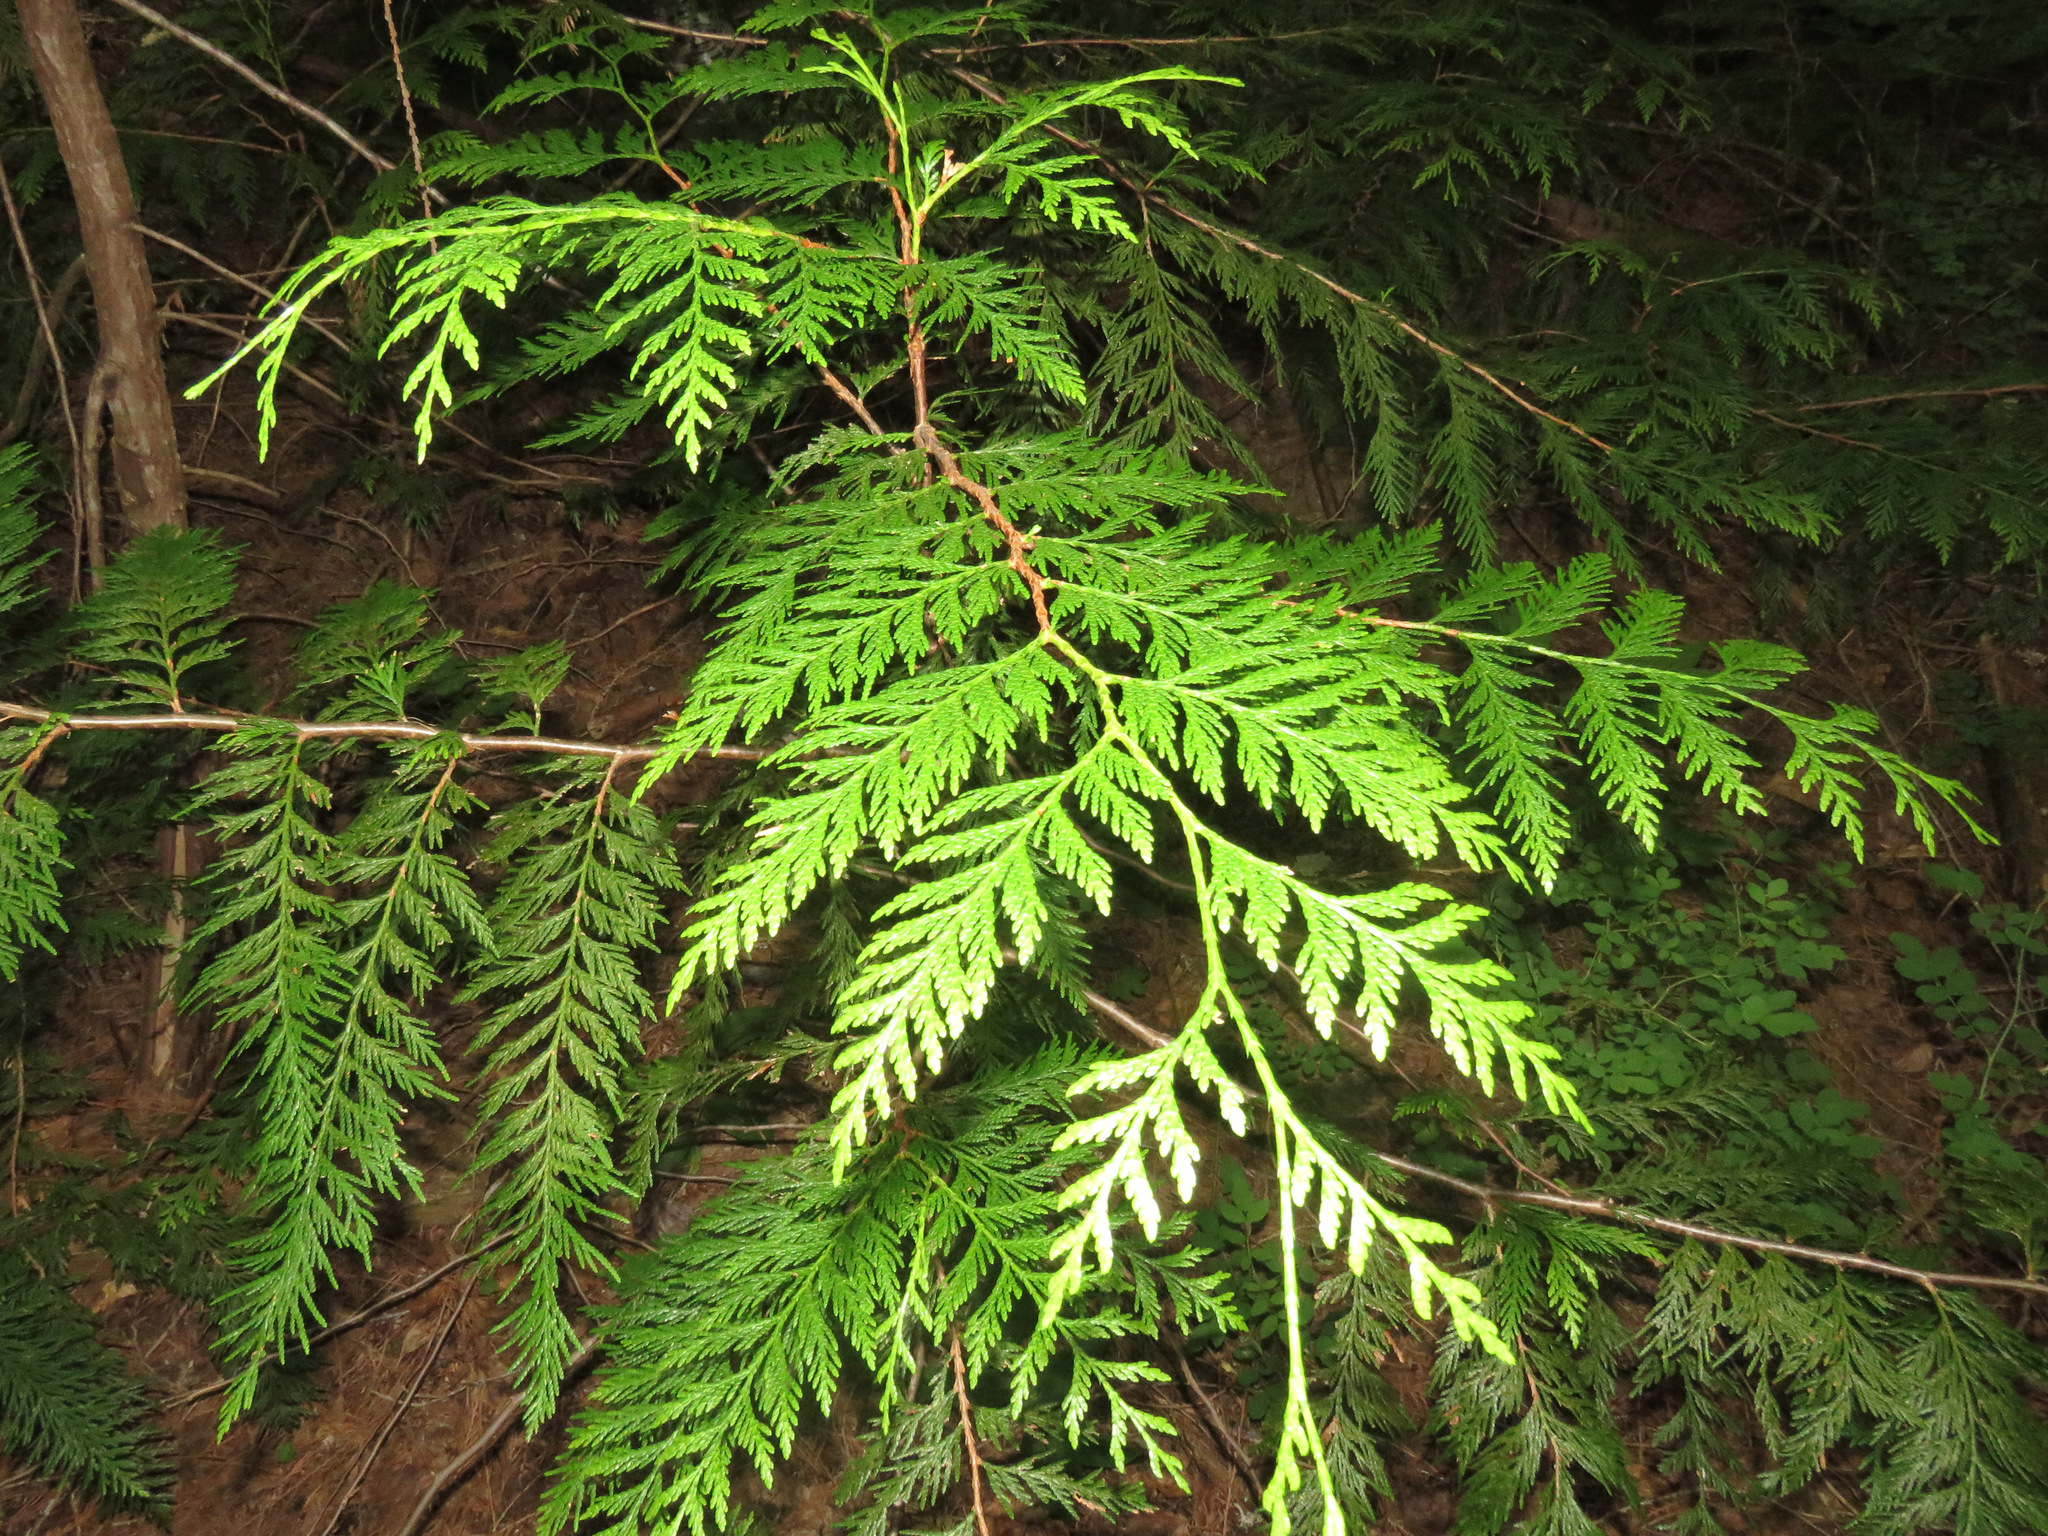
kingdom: Plantae
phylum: Tracheophyta
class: Pinopsida
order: Pinales
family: Cupressaceae
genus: Thuja
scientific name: Thuja plicata
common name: Western red-cedar
